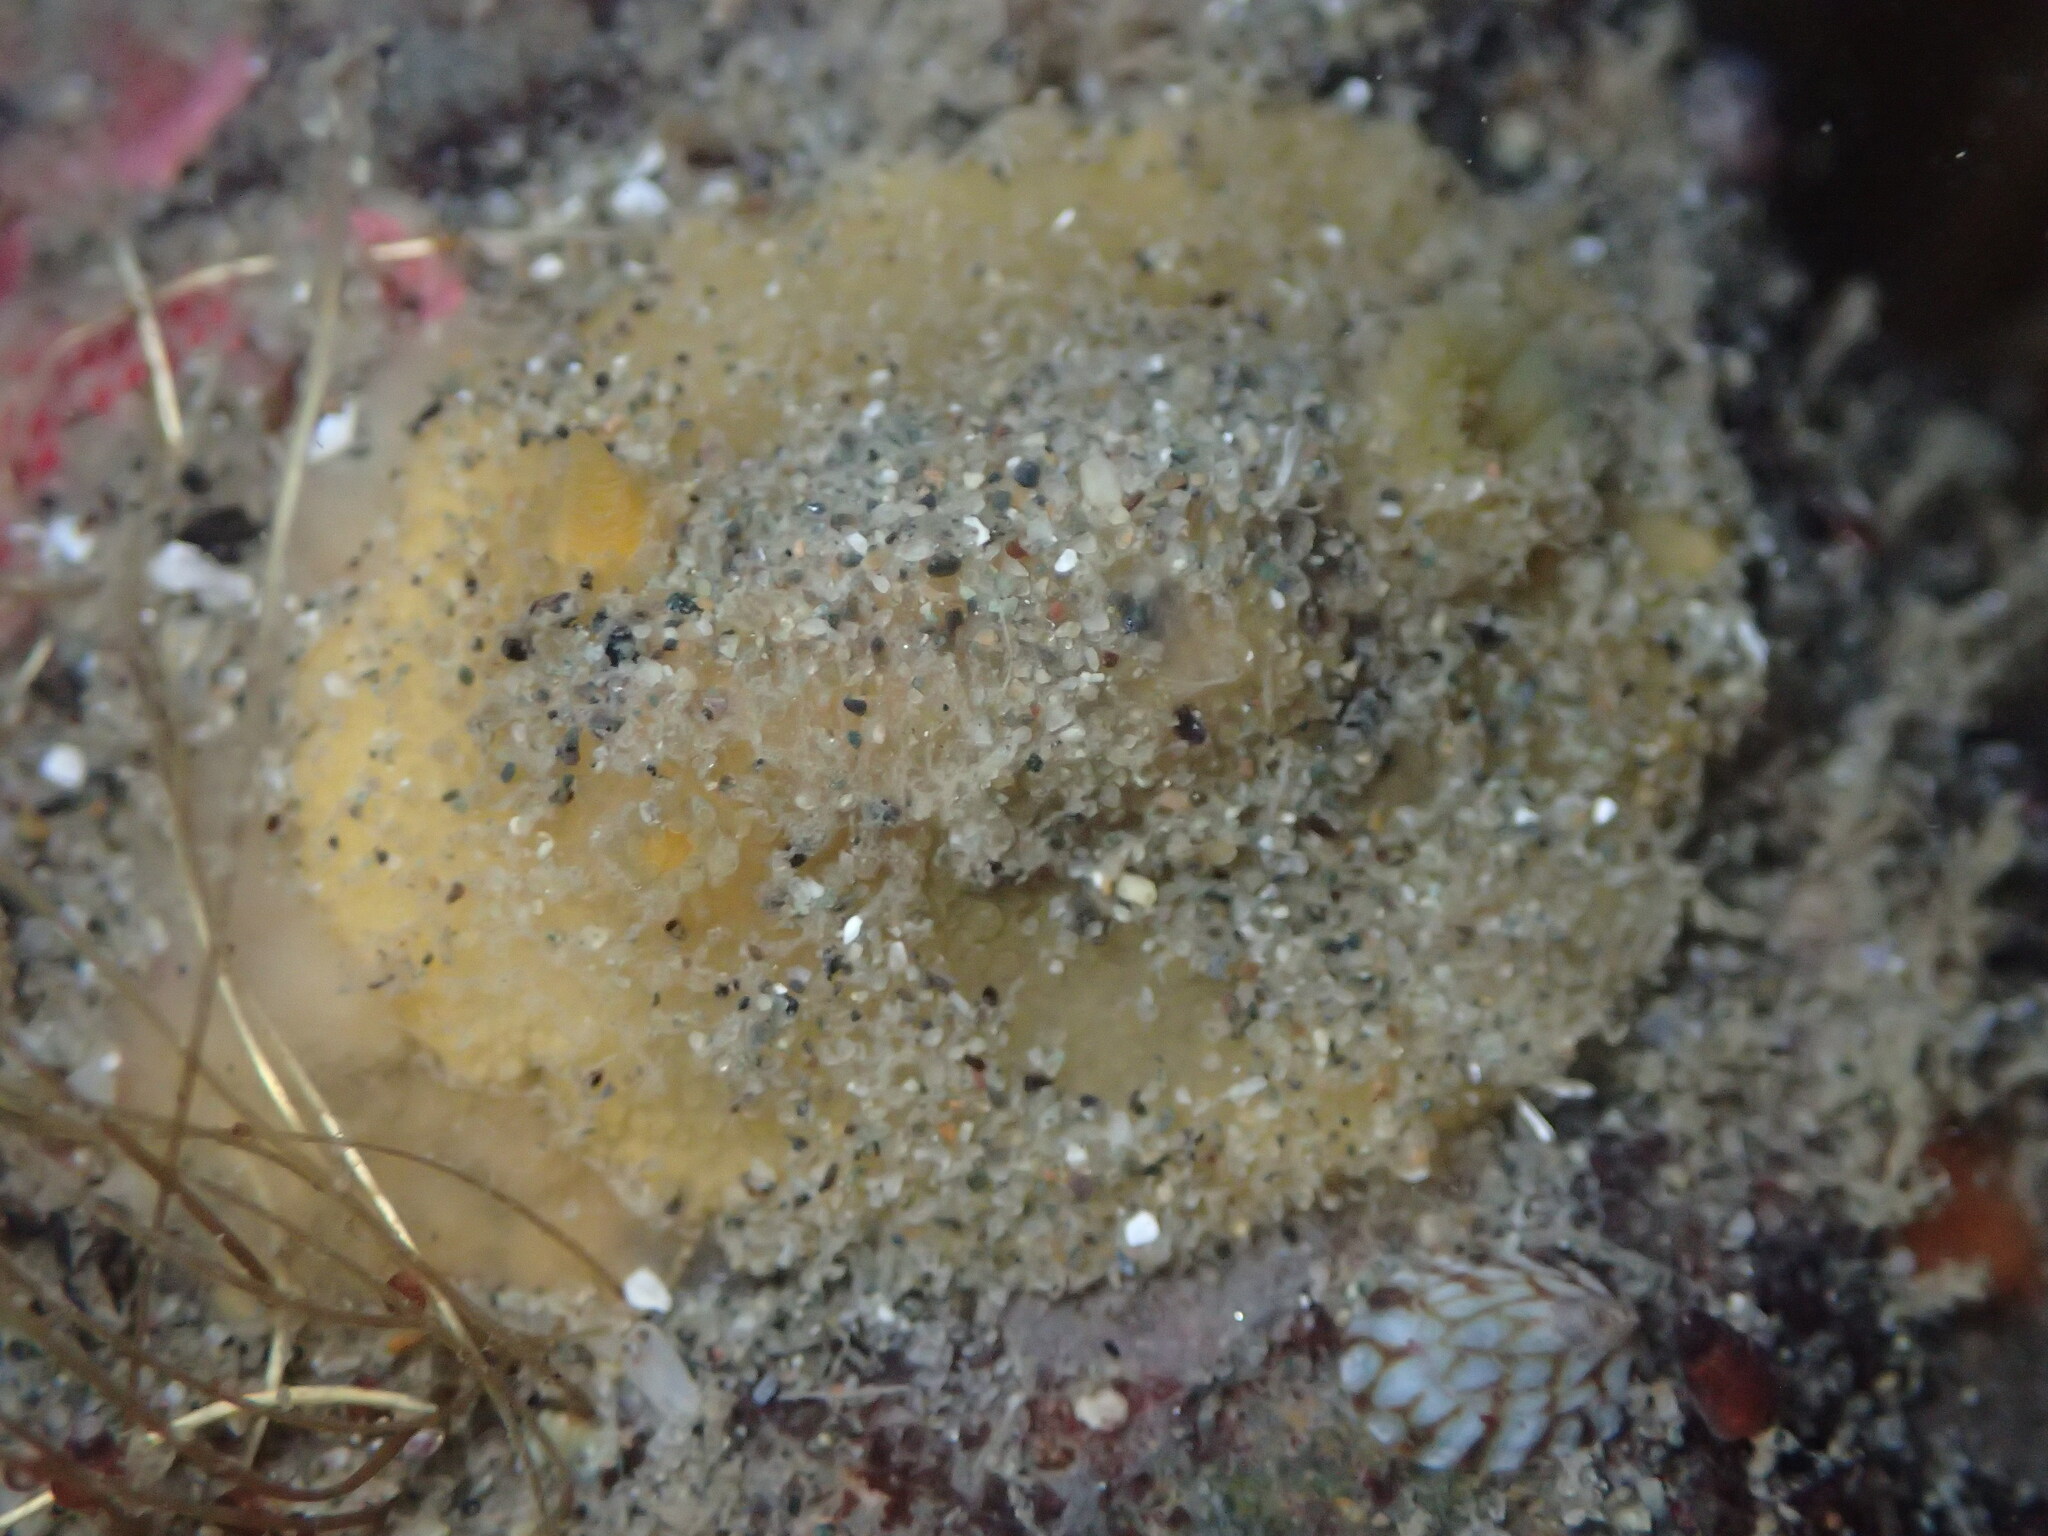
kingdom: Animalia
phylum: Mollusca
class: Gastropoda
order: Nudibranchia
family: Dorididae
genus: Doris
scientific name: Doris montereyensis
